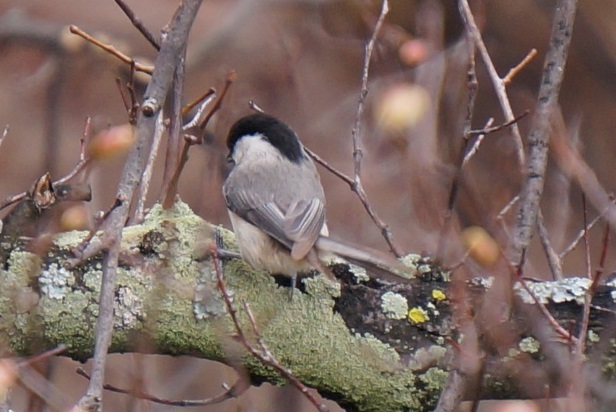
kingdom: Animalia
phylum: Chordata
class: Aves
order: Passeriformes
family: Paridae
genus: Poecile
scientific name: Poecile carolinensis
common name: Carolina chickadee
